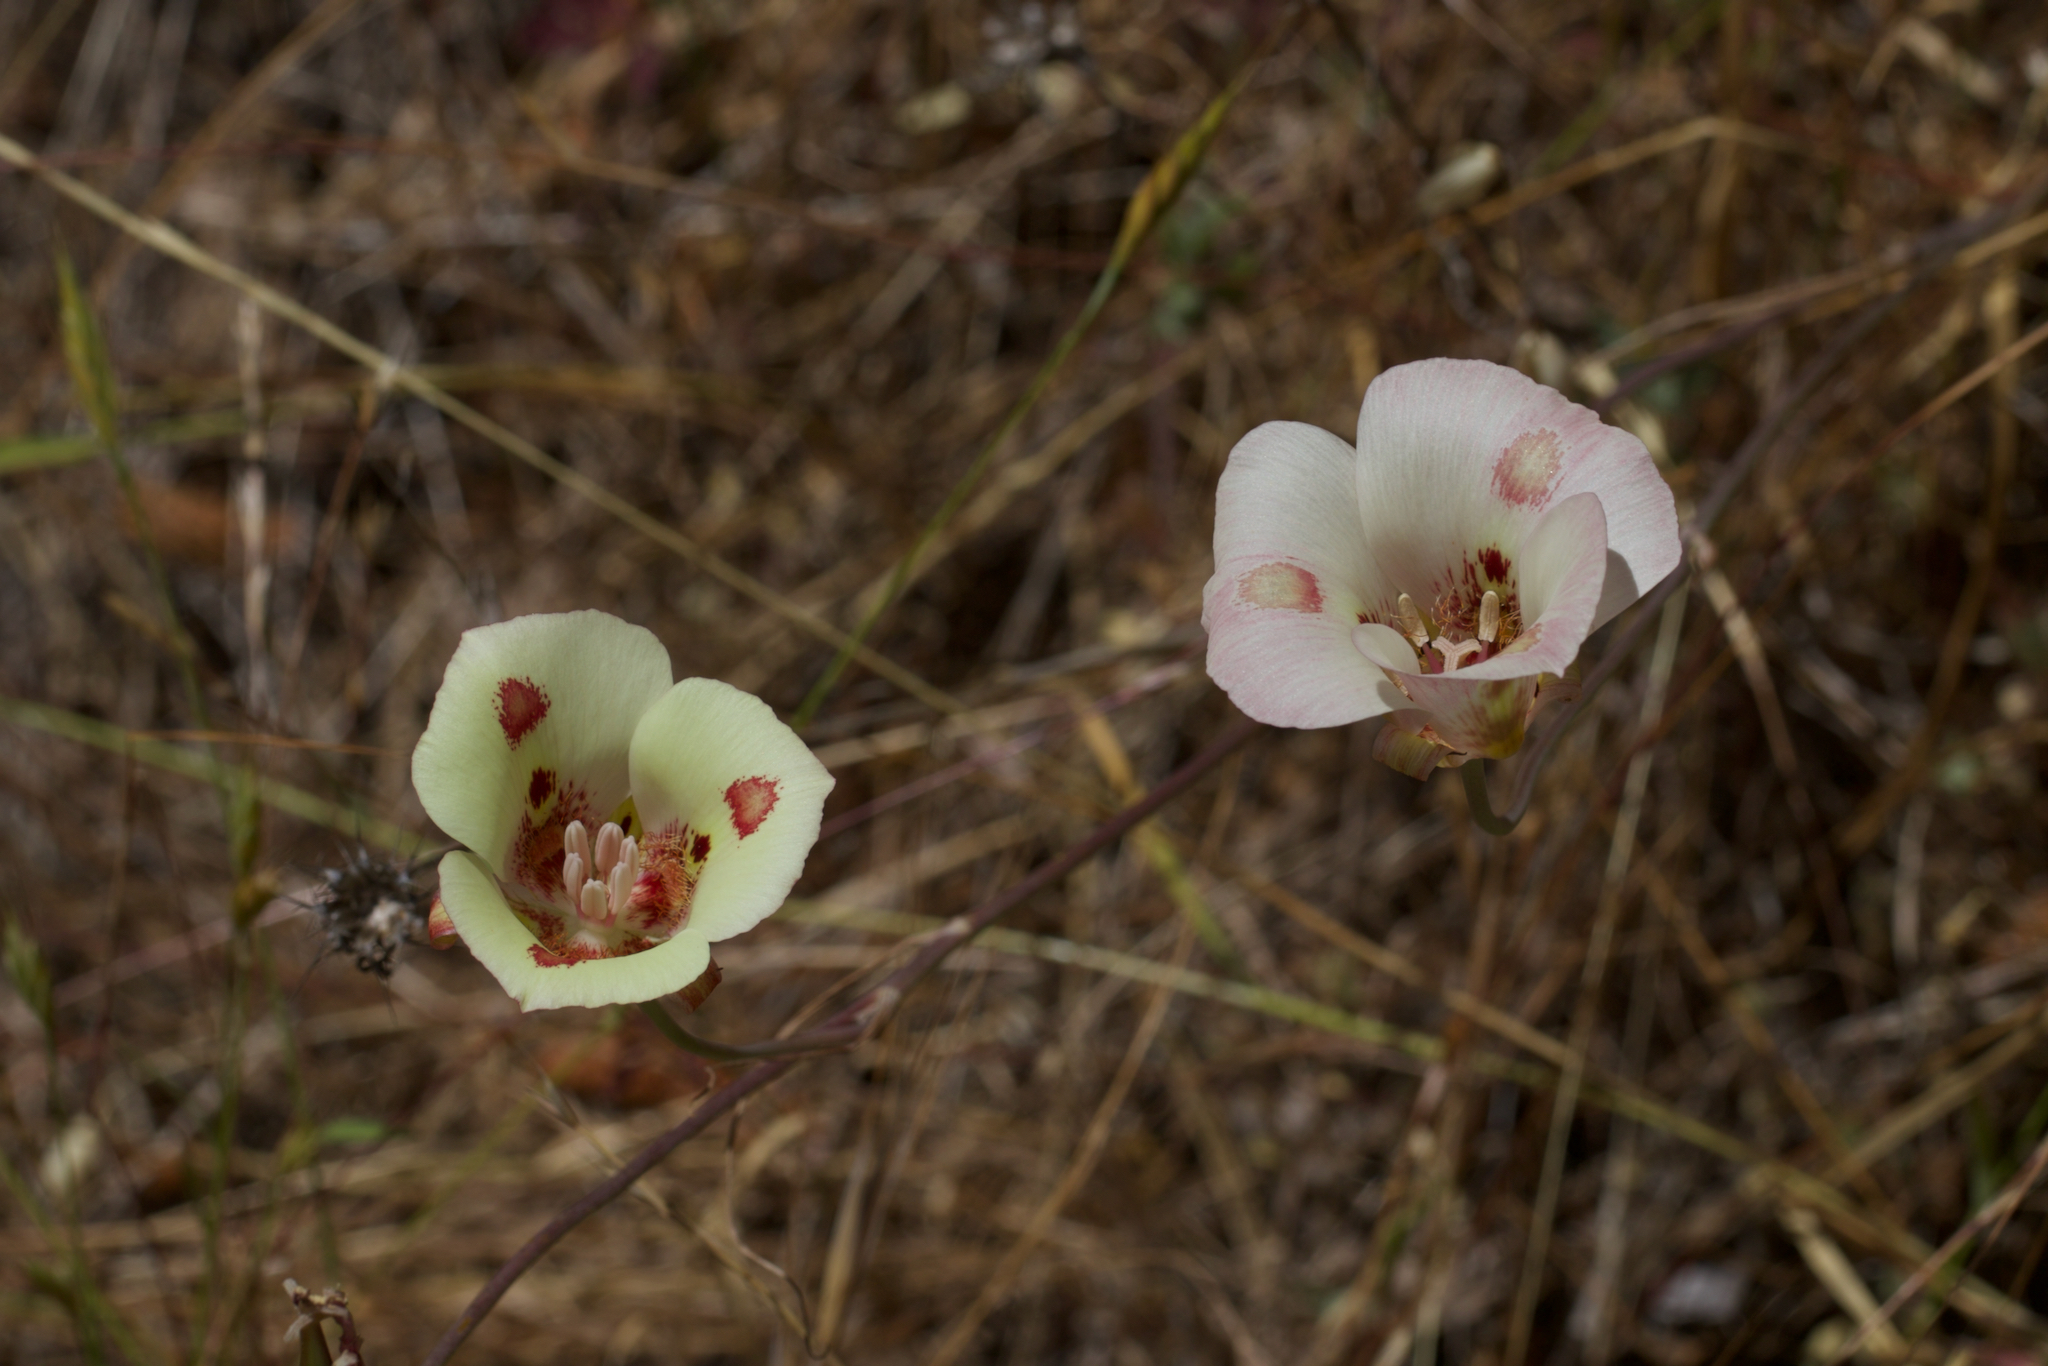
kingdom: Plantae
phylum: Tracheophyta
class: Liliopsida
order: Liliales
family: Liliaceae
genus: Calochortus
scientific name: Calochortus venustus
